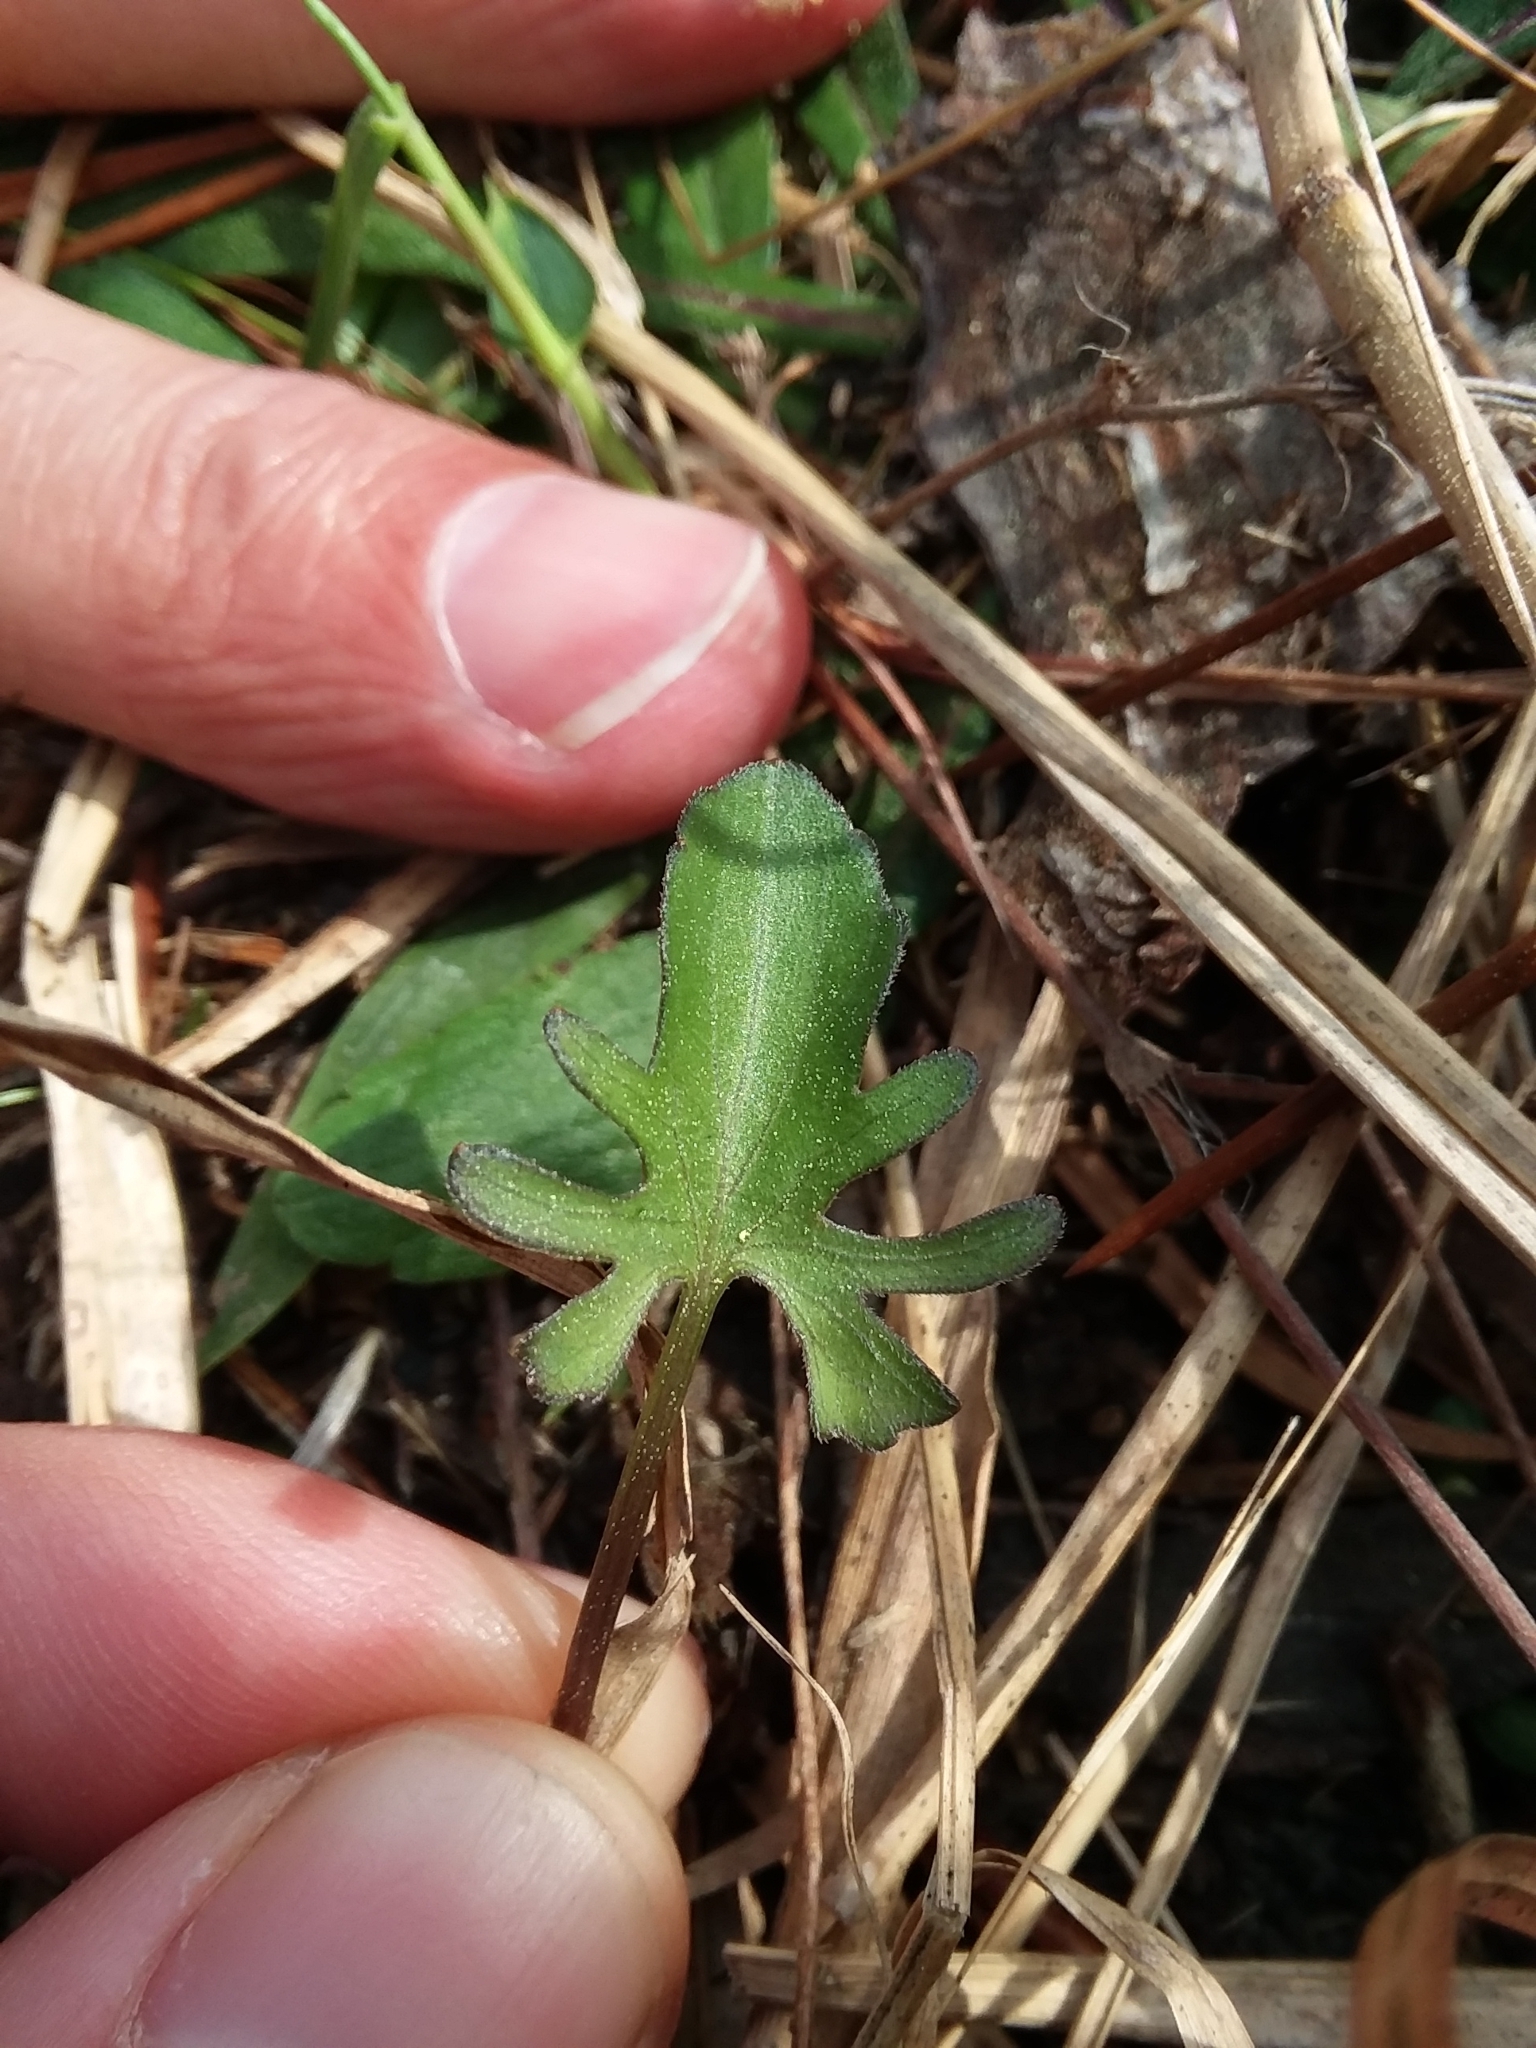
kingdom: Plantae
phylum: Tracheophyta
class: Magnoliopsida
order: Malpighiales
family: Violaceae
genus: Viola
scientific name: Viola septemloba
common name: Southern coast violet
